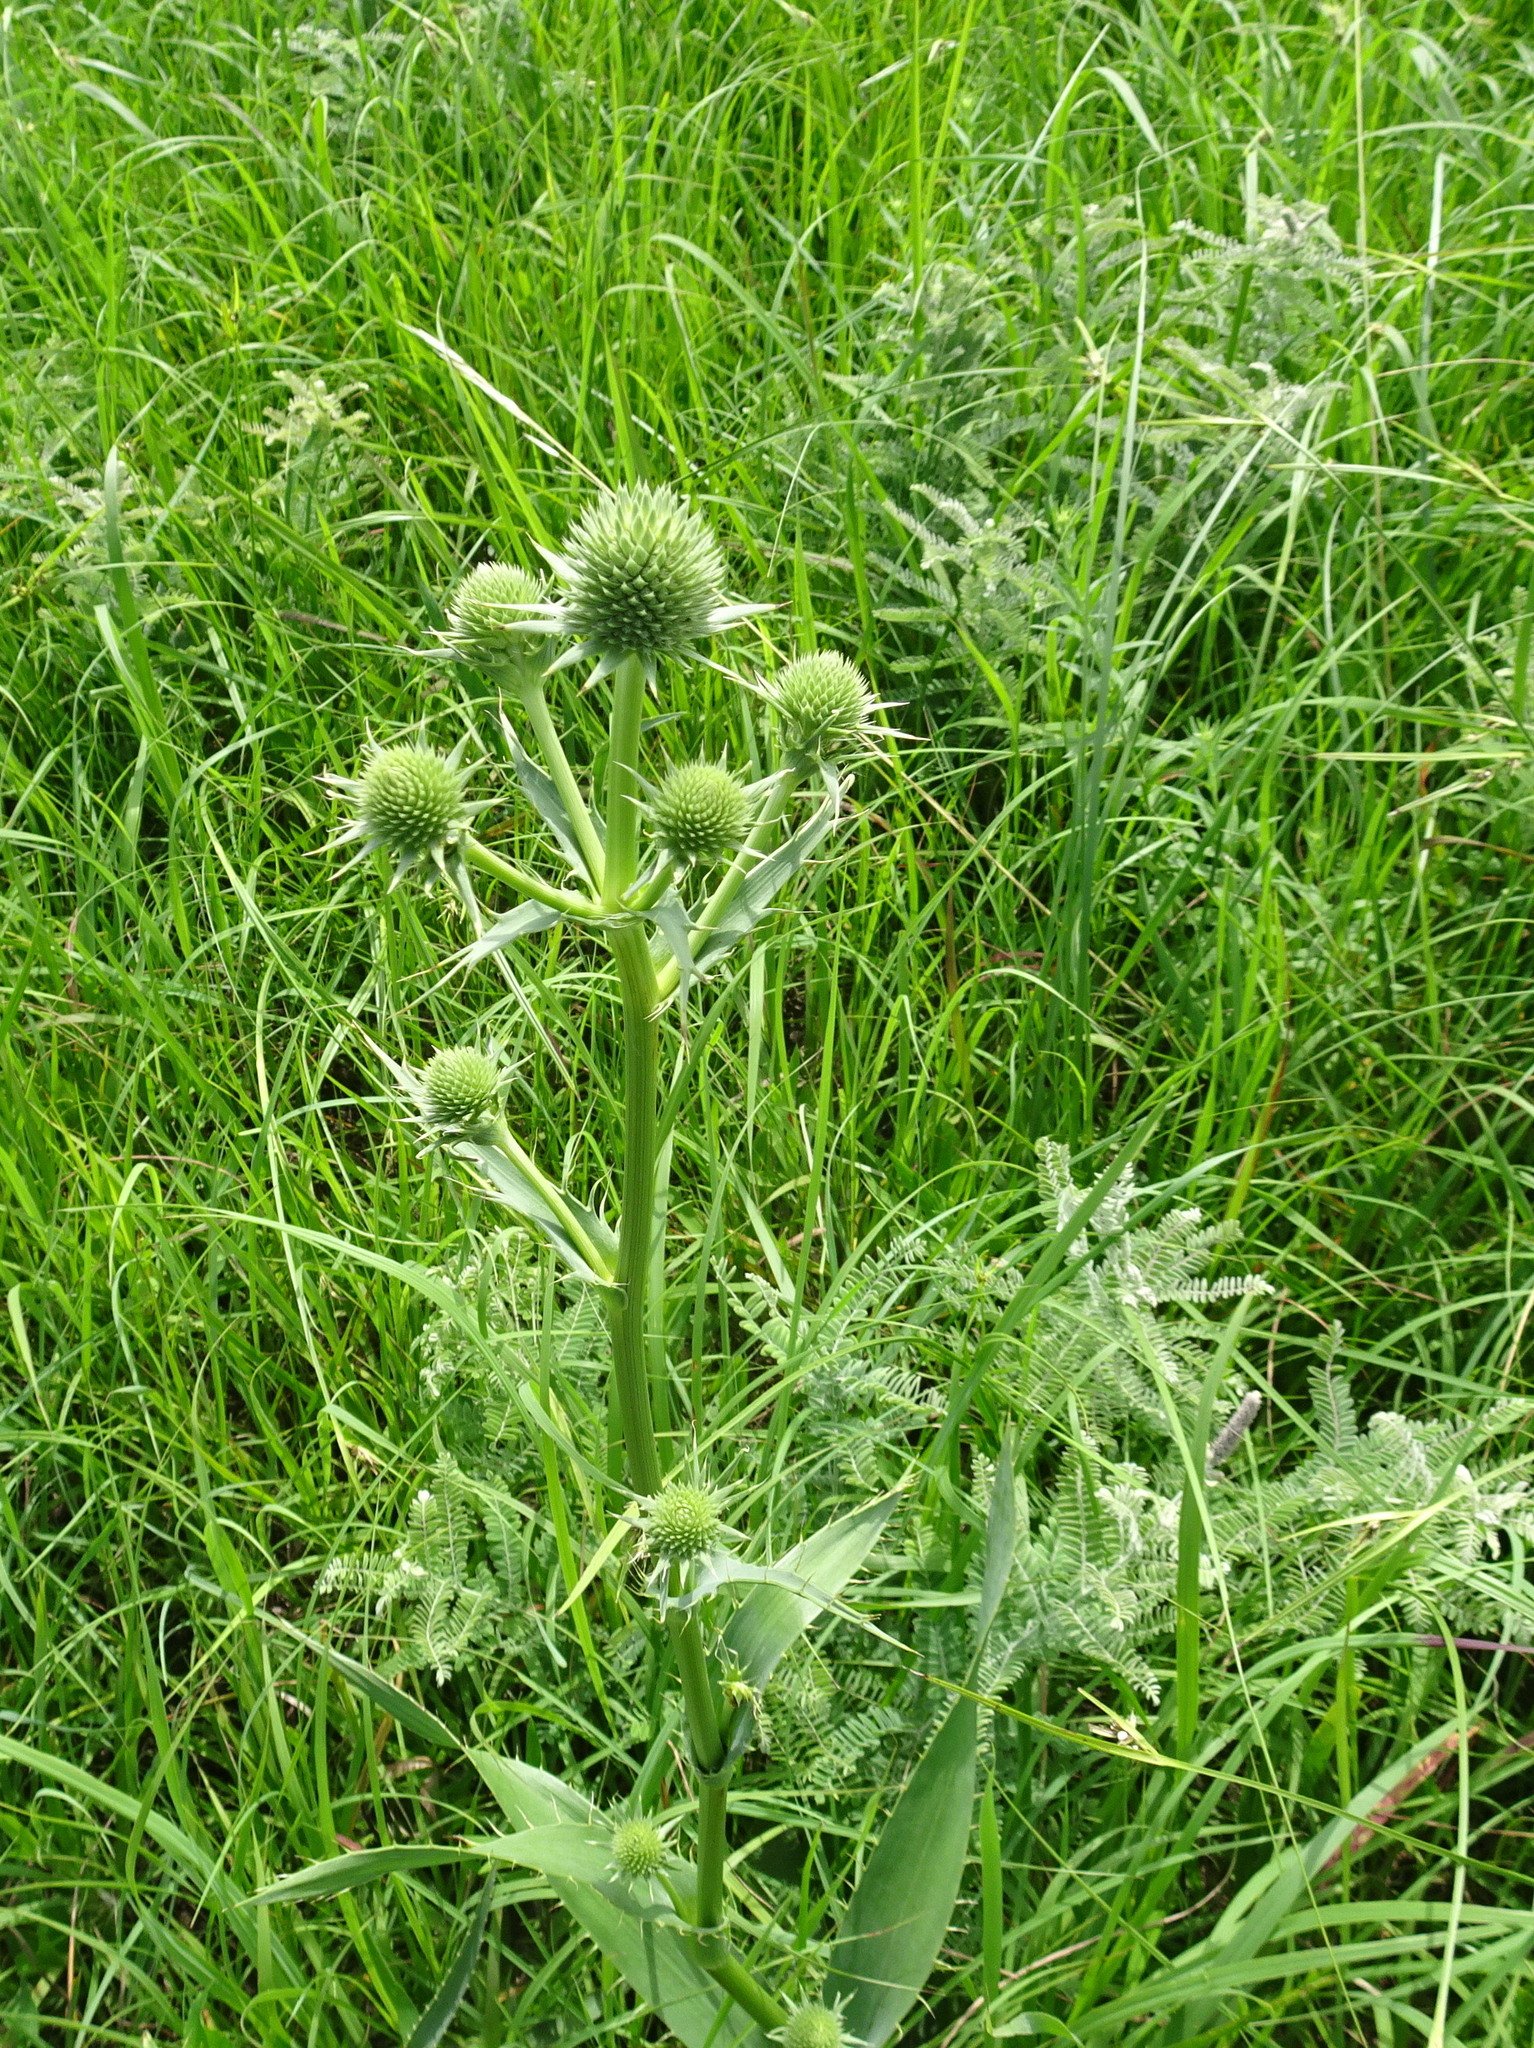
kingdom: Plantae
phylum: Tracheophyta
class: Magnoliopsida
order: Apiales
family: Apiaceae
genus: Eryngium
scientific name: Eryngium yuccifolium
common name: Button eryngo
